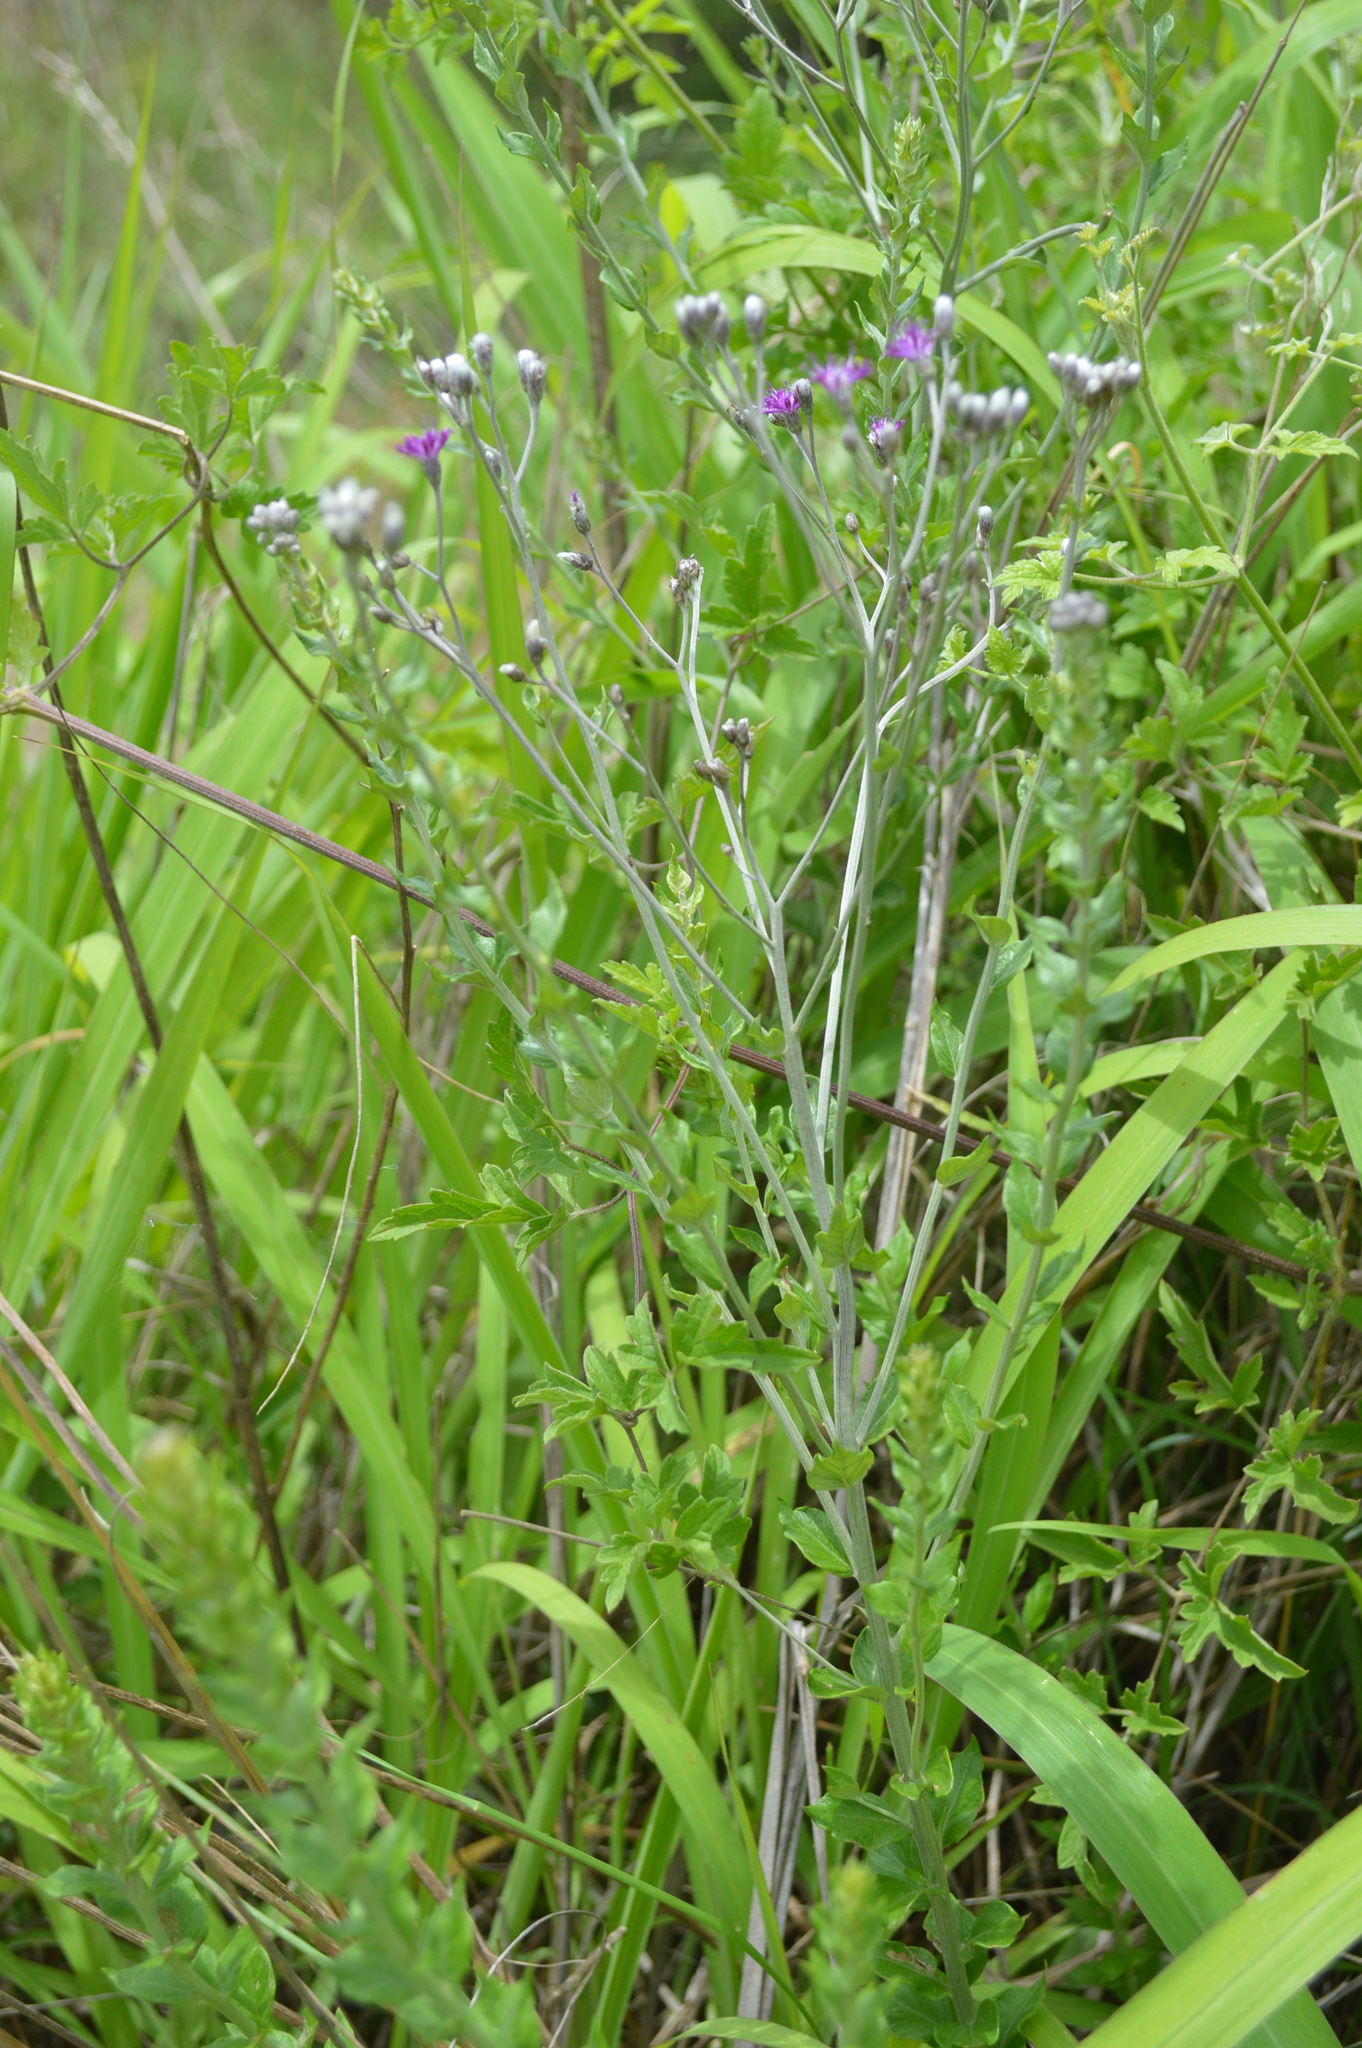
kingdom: Plantae
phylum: Tracheophyta
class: Magnoliopsida
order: Asterales
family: Asteraceae
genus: Hilliardiella
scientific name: Hilliardiella oligocephala
